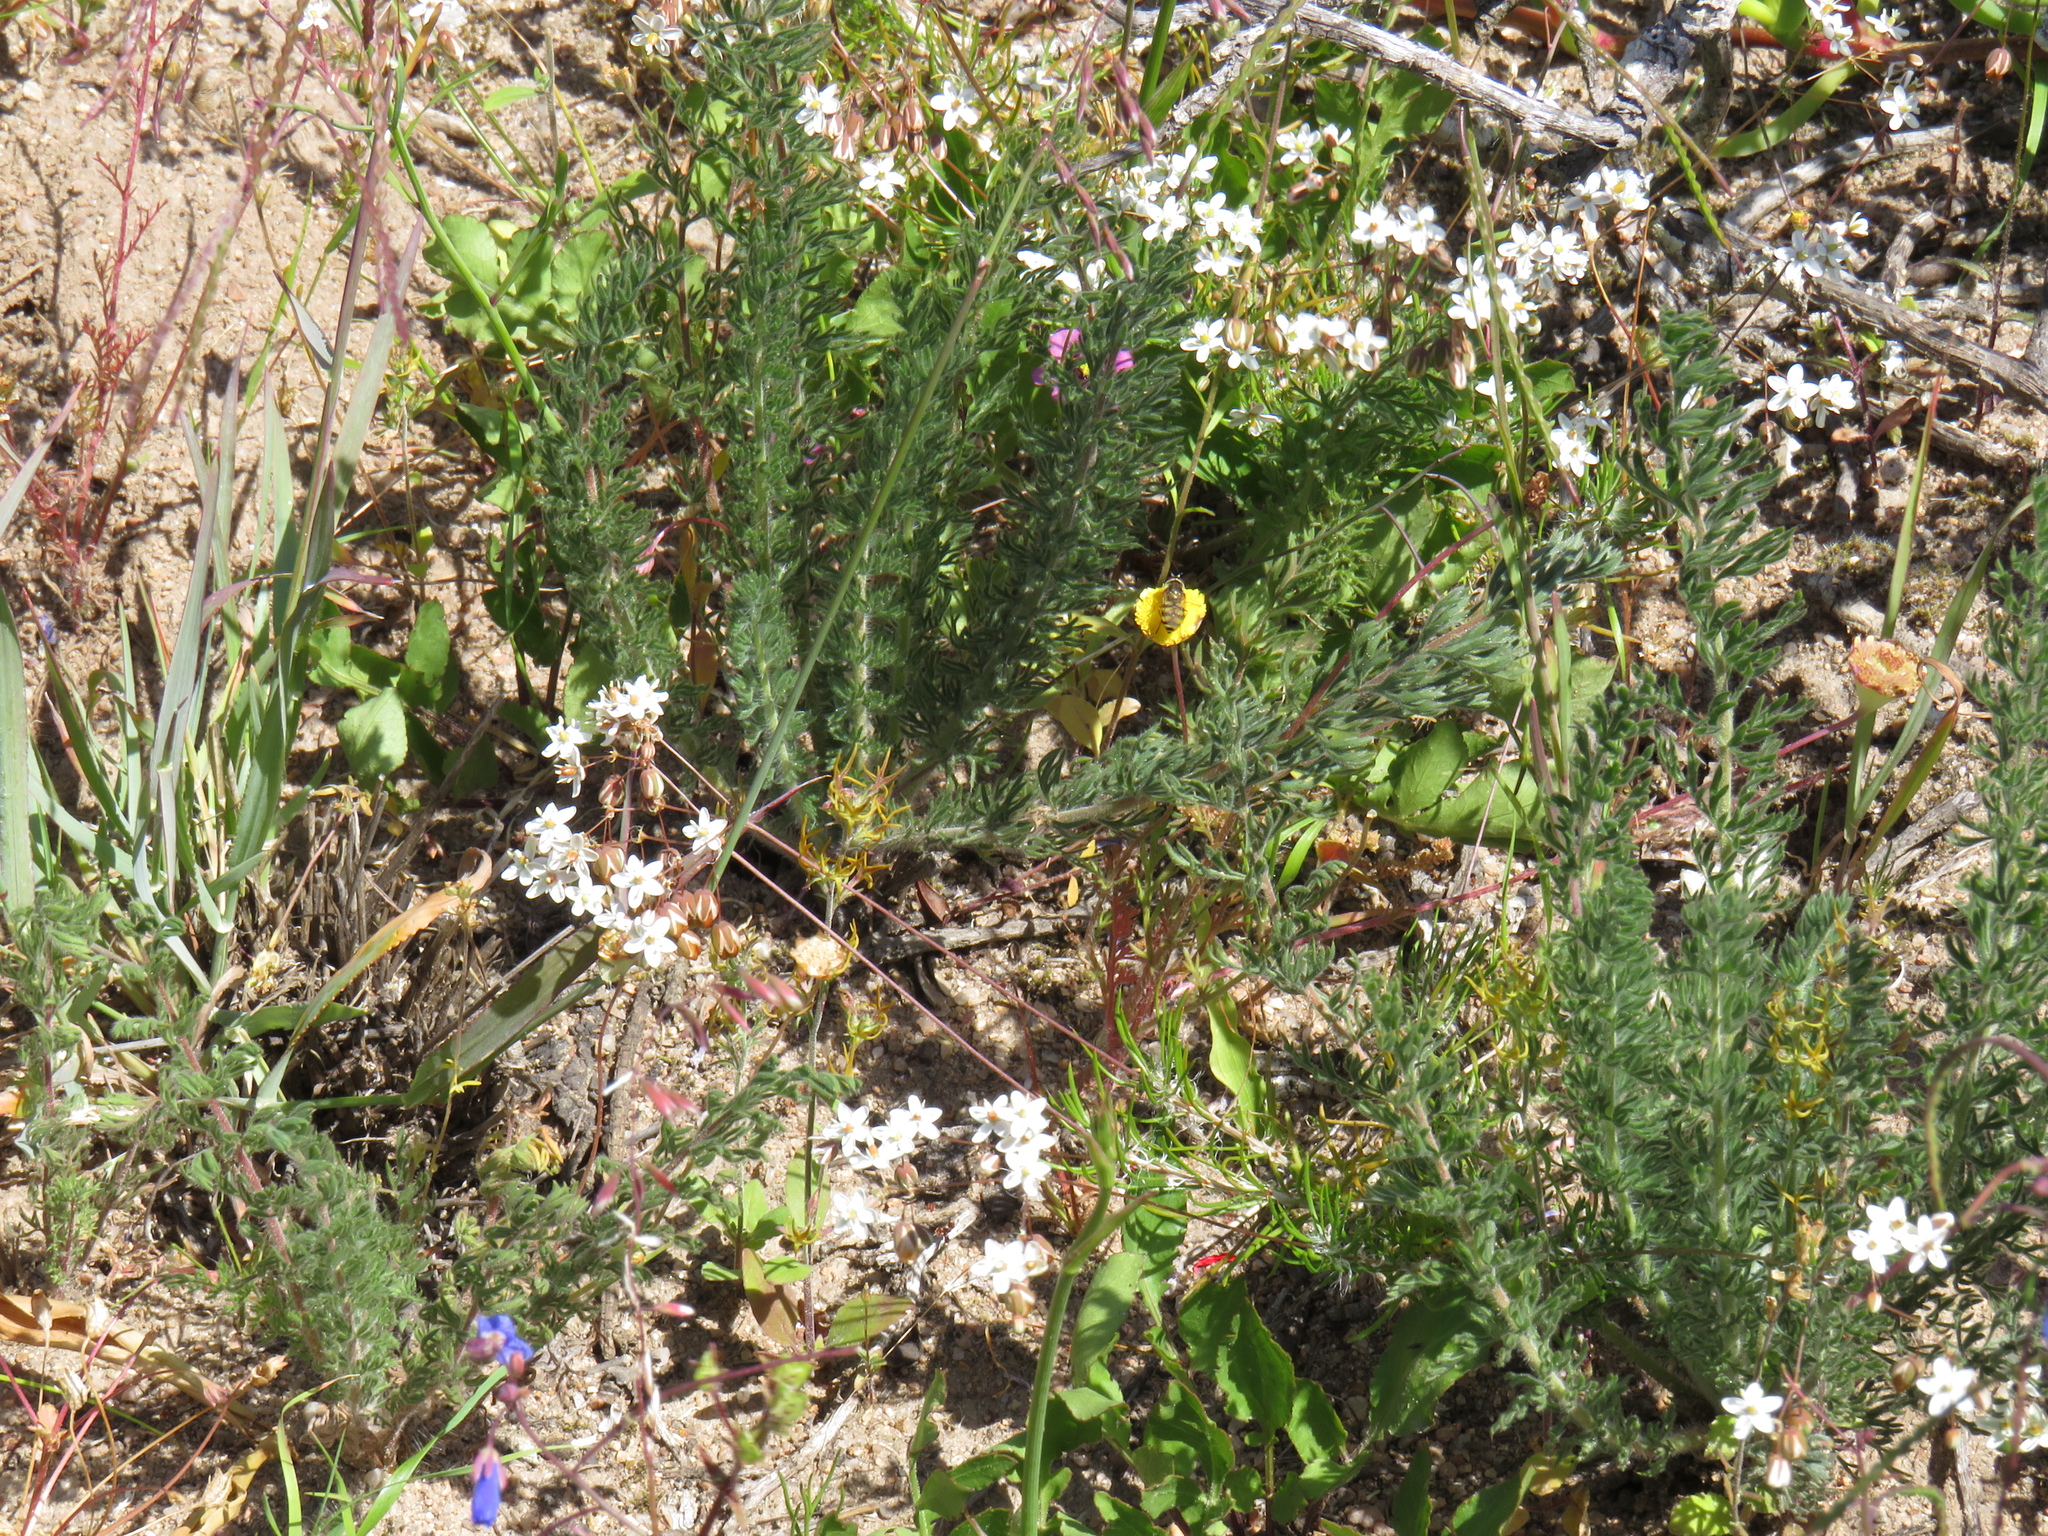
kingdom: Plantae
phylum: Tracheophyta
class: Magnoliopsida
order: Geraniales
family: Geraniaceae
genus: Pelargonium
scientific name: Pelargonium rapaceum
